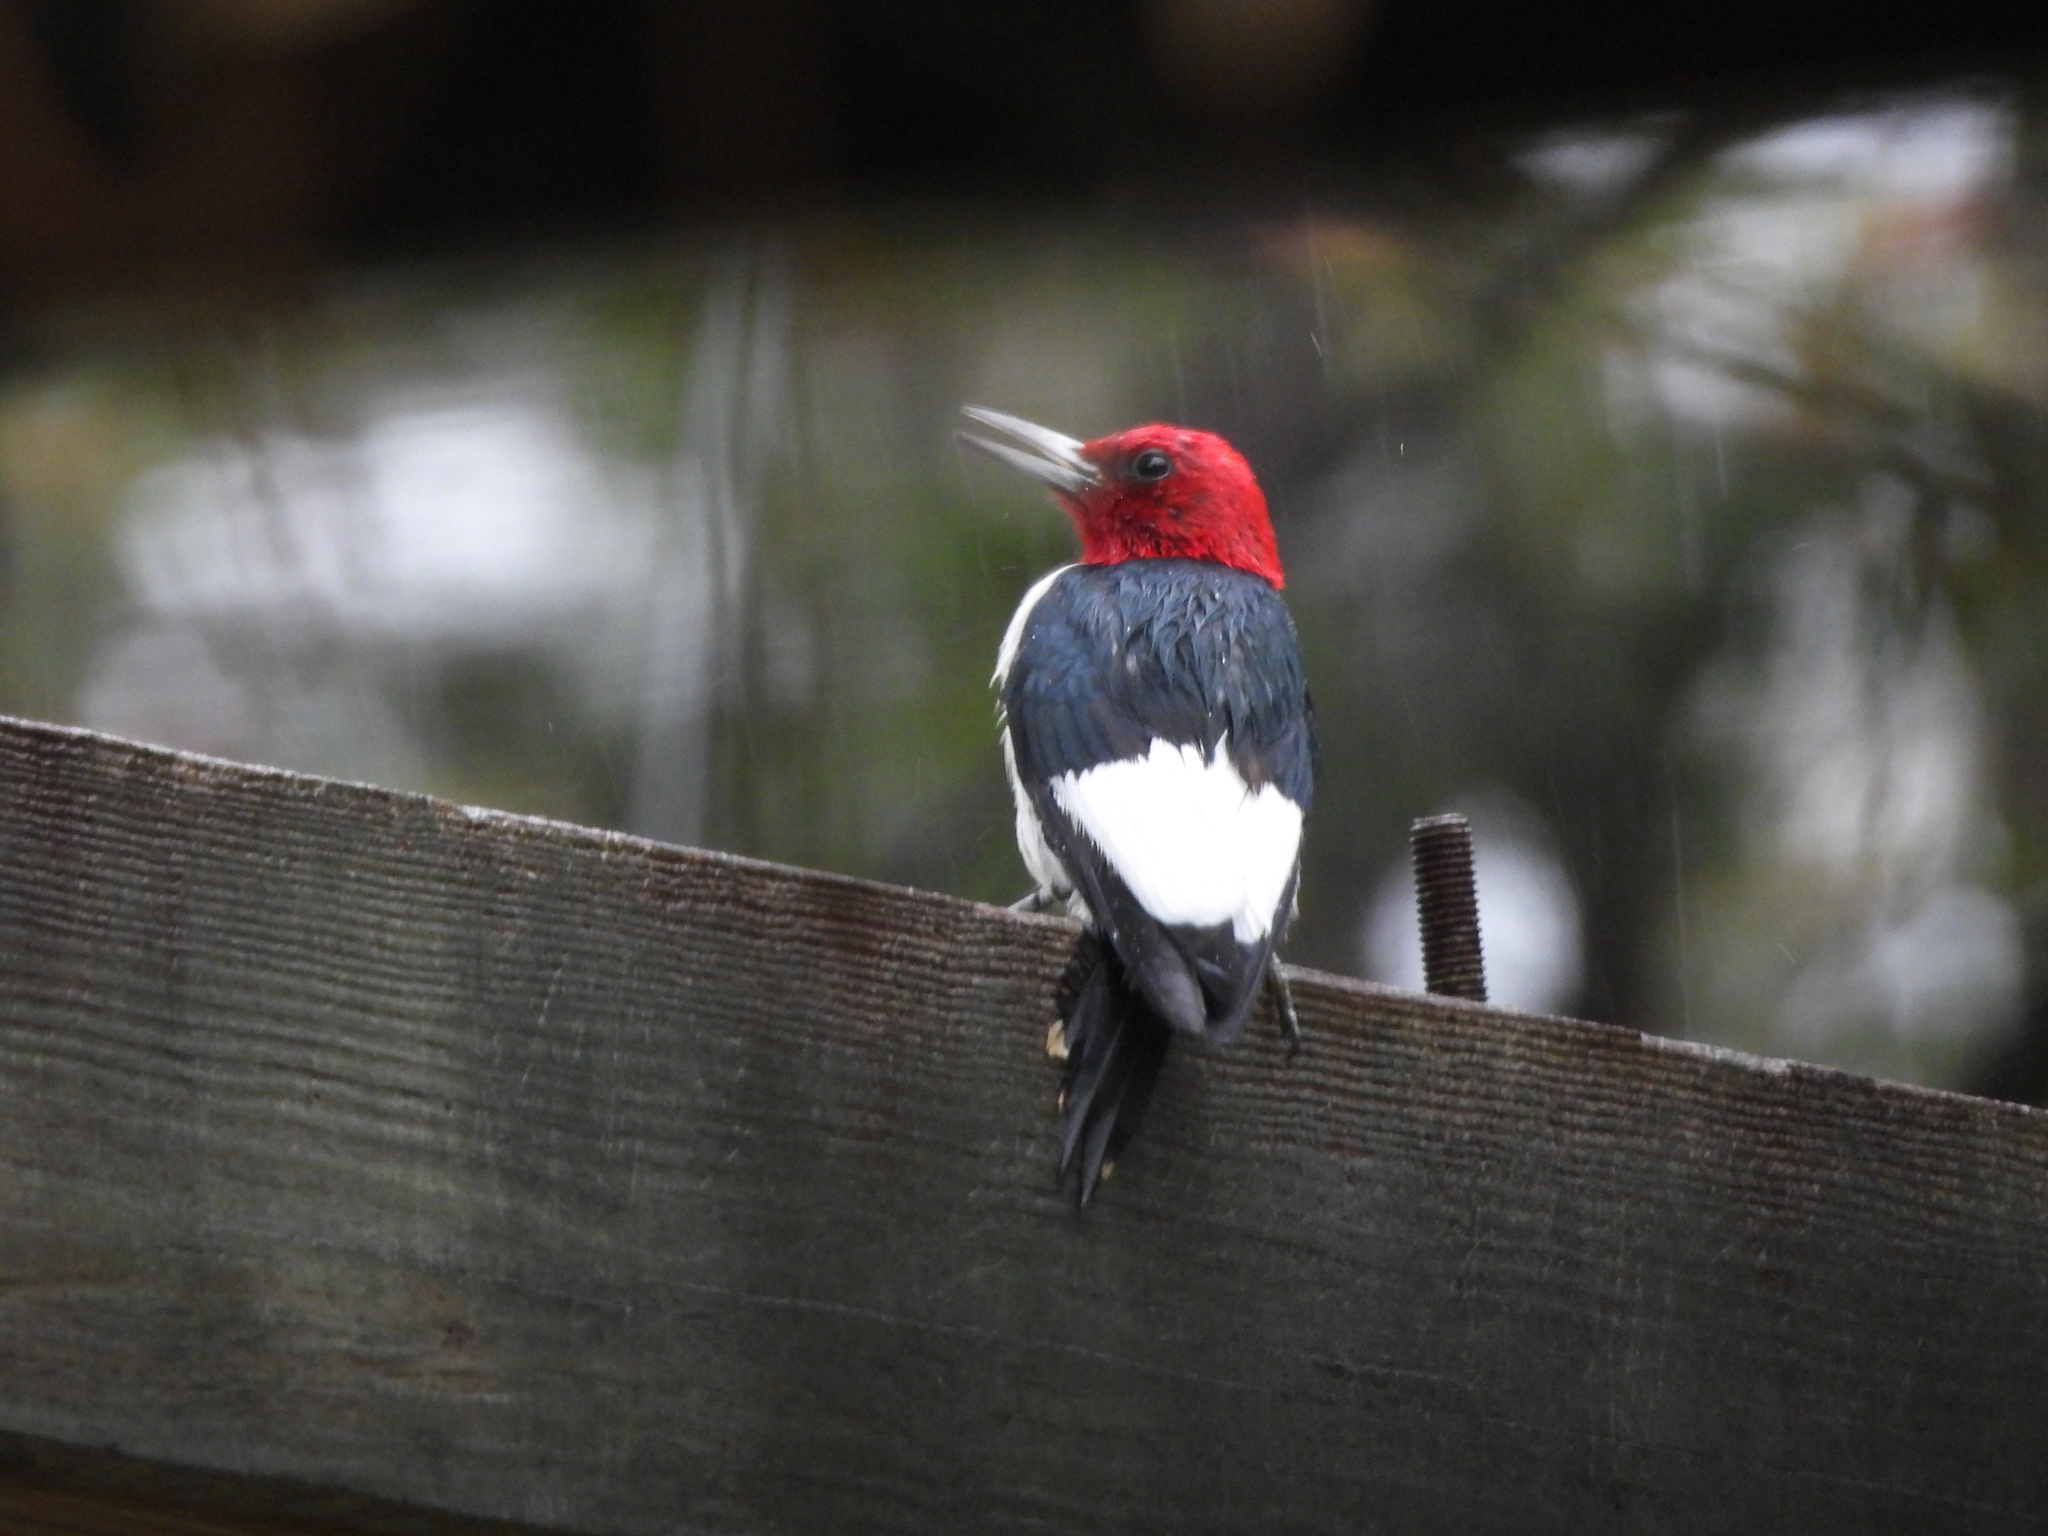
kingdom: Animalia
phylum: Chordata
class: Aves
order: Piciformes
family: Picidae
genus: Melanerpes
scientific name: Melanerpes erythrocephalus
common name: Red-headed woodpecker
